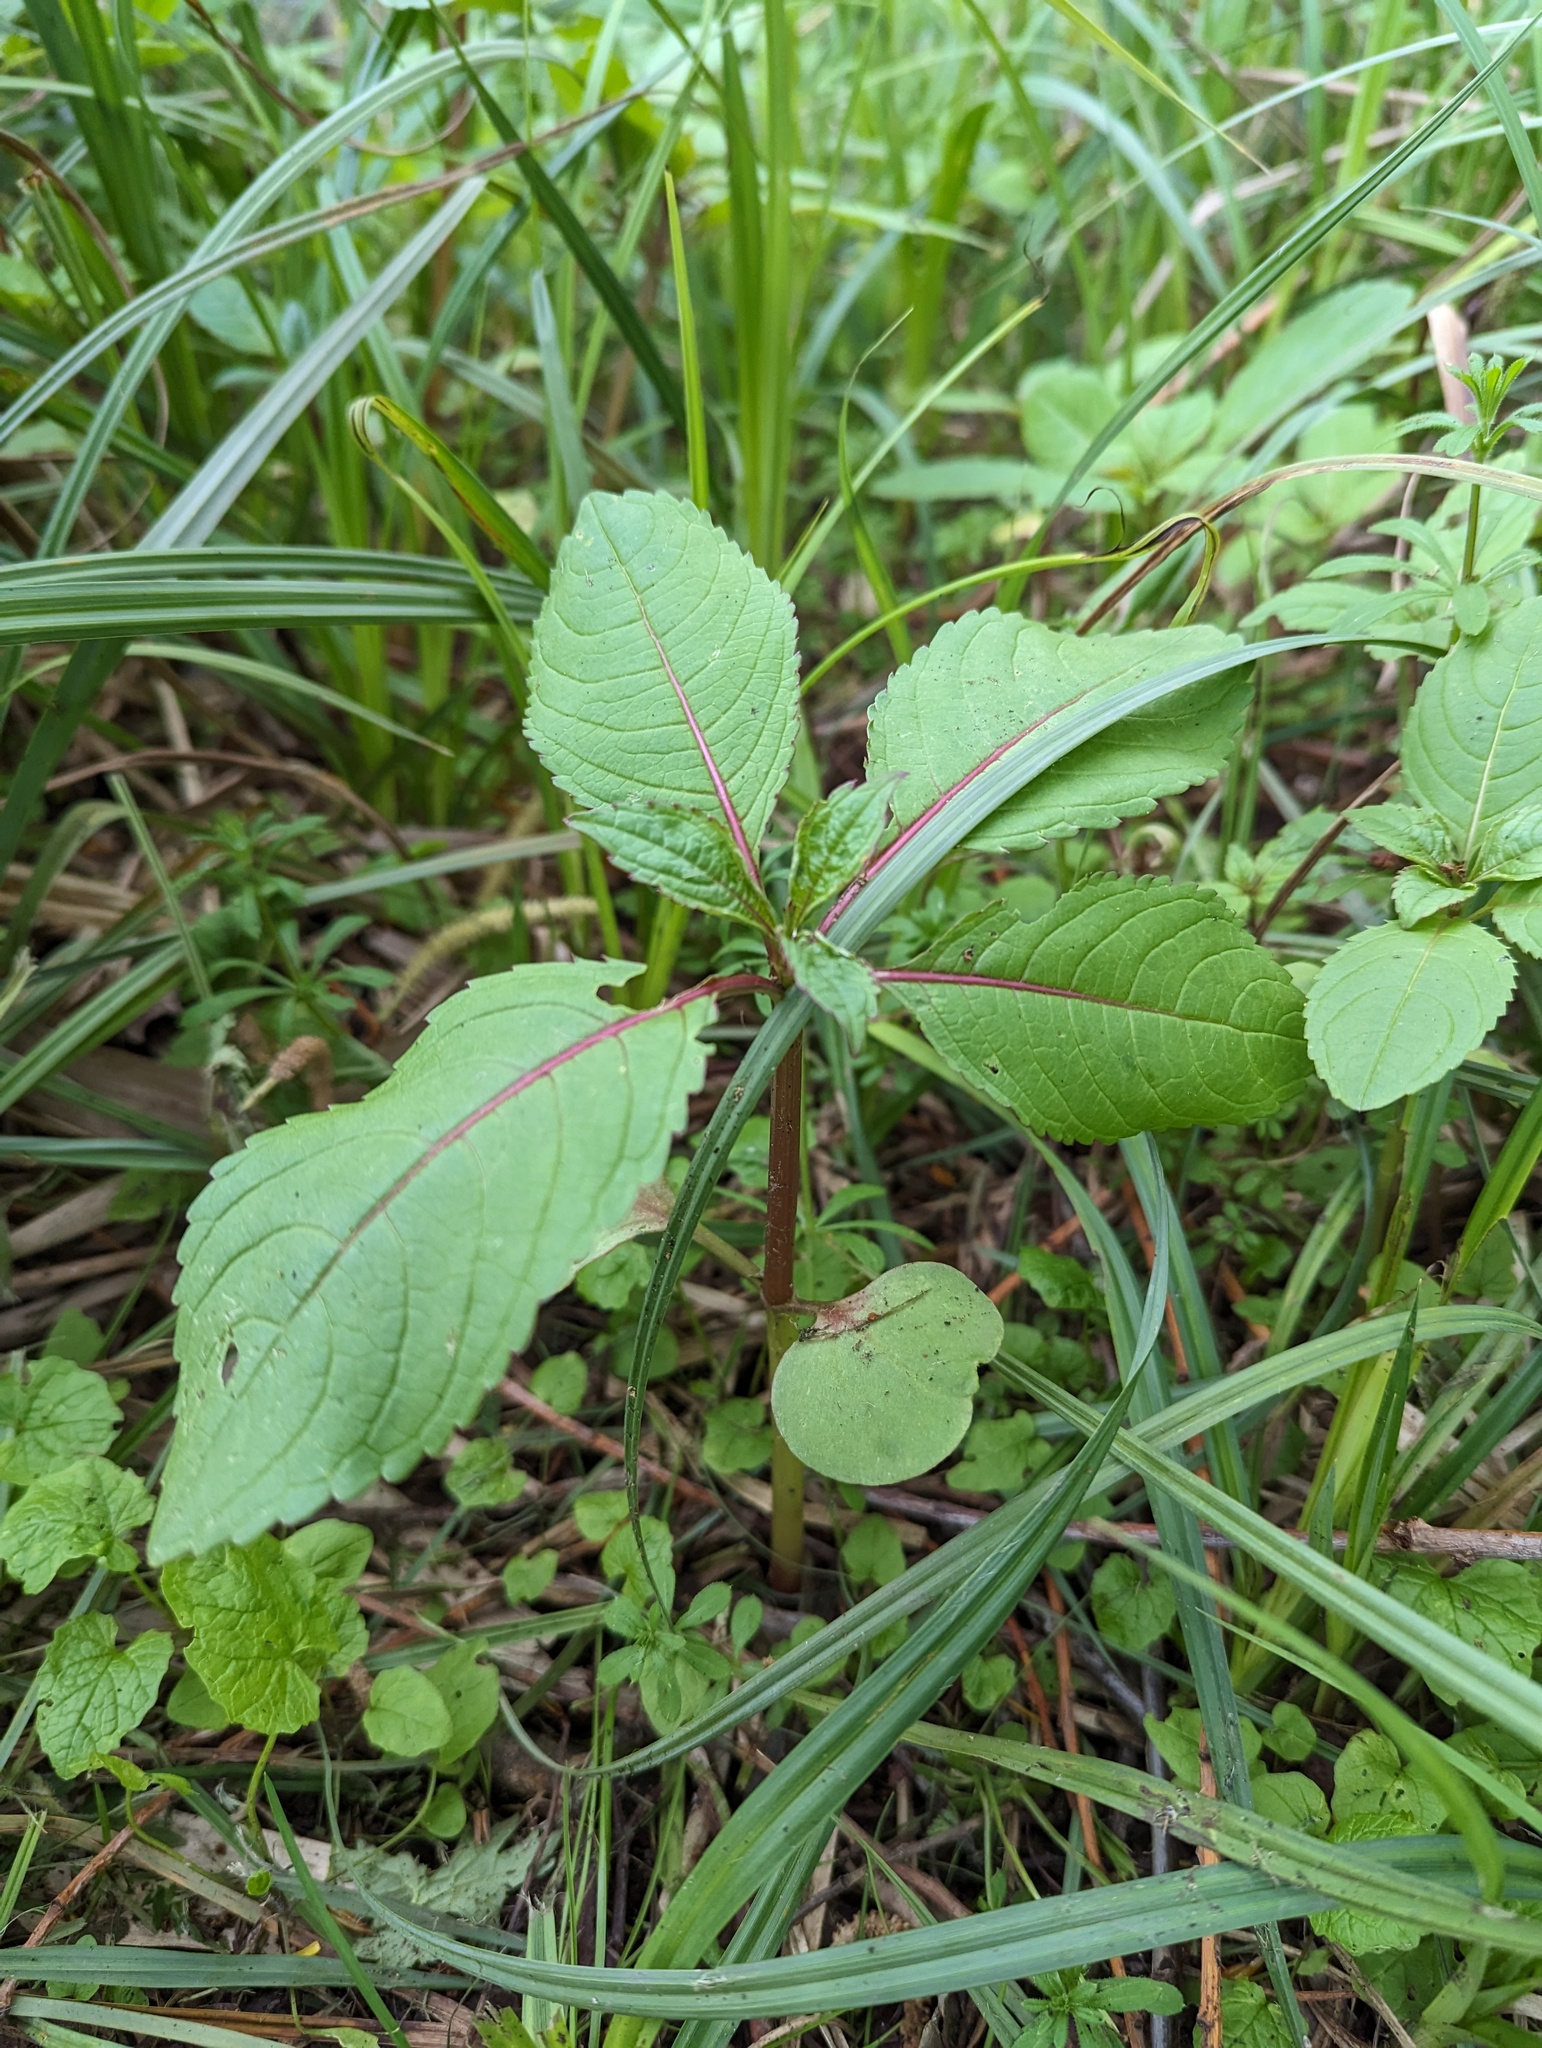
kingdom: Plantae
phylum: Tracheophyta
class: Magnoliopsida
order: Ericales
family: Balsaminaceae
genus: Impatiens
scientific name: Impatiens glandulifera
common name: Himalayan balsam
